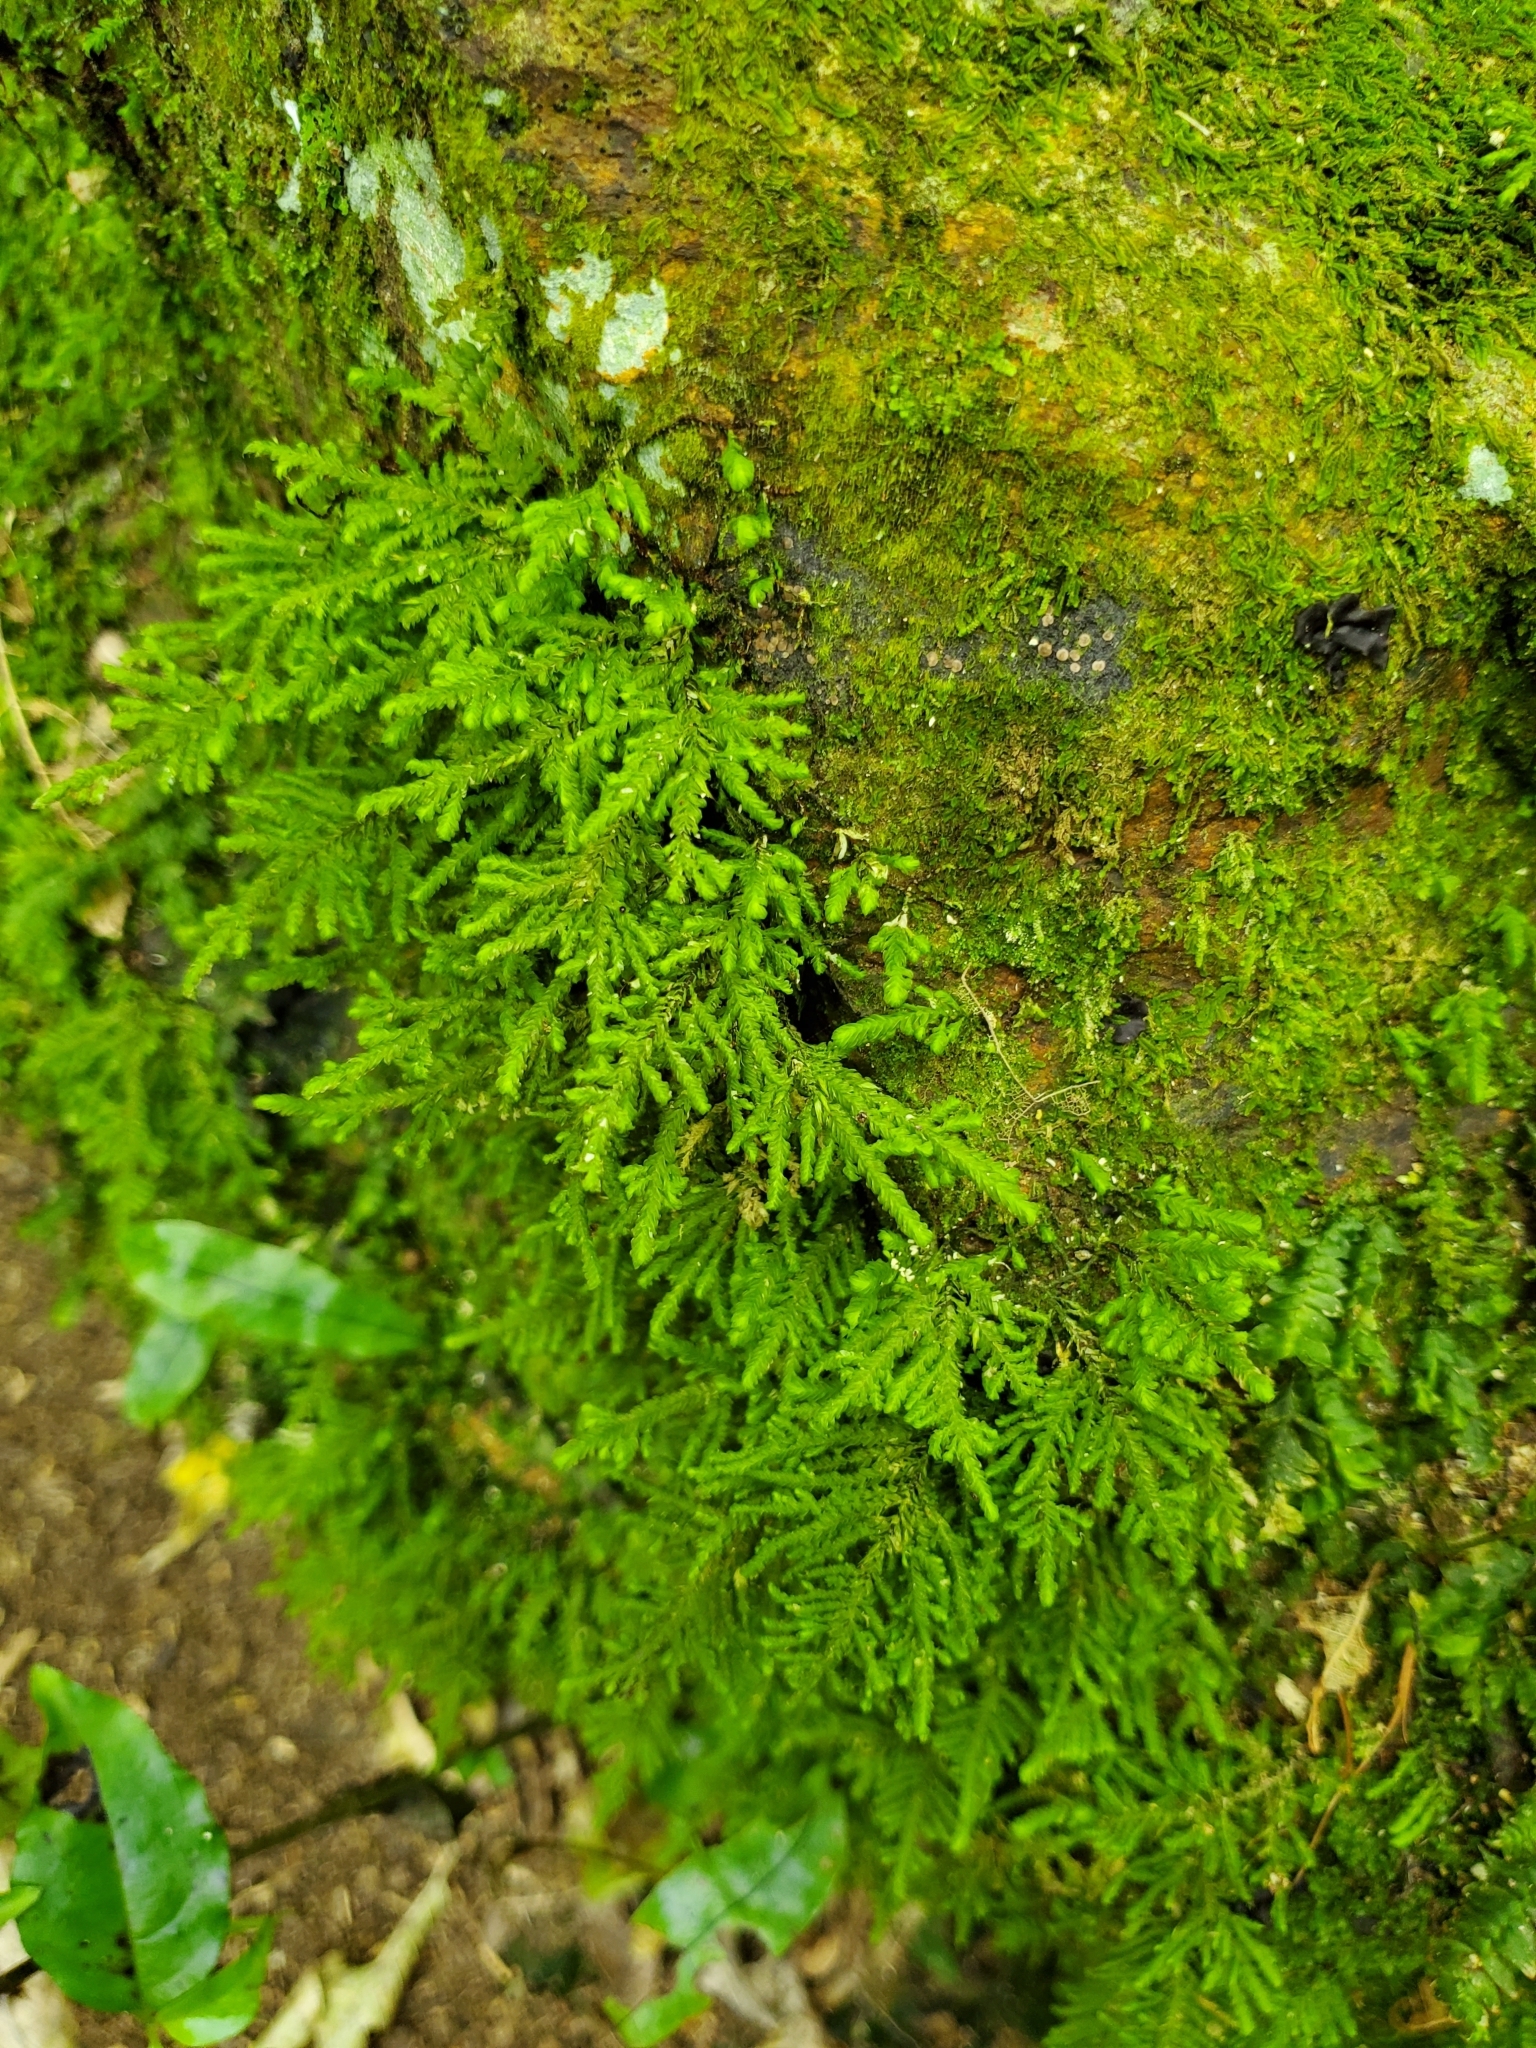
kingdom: Plantae
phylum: Bryophyta
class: Bryopsida
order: Hypopterygiales
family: Hypopterygiaceae
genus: Lopidium
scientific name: Lopidium concinnum
